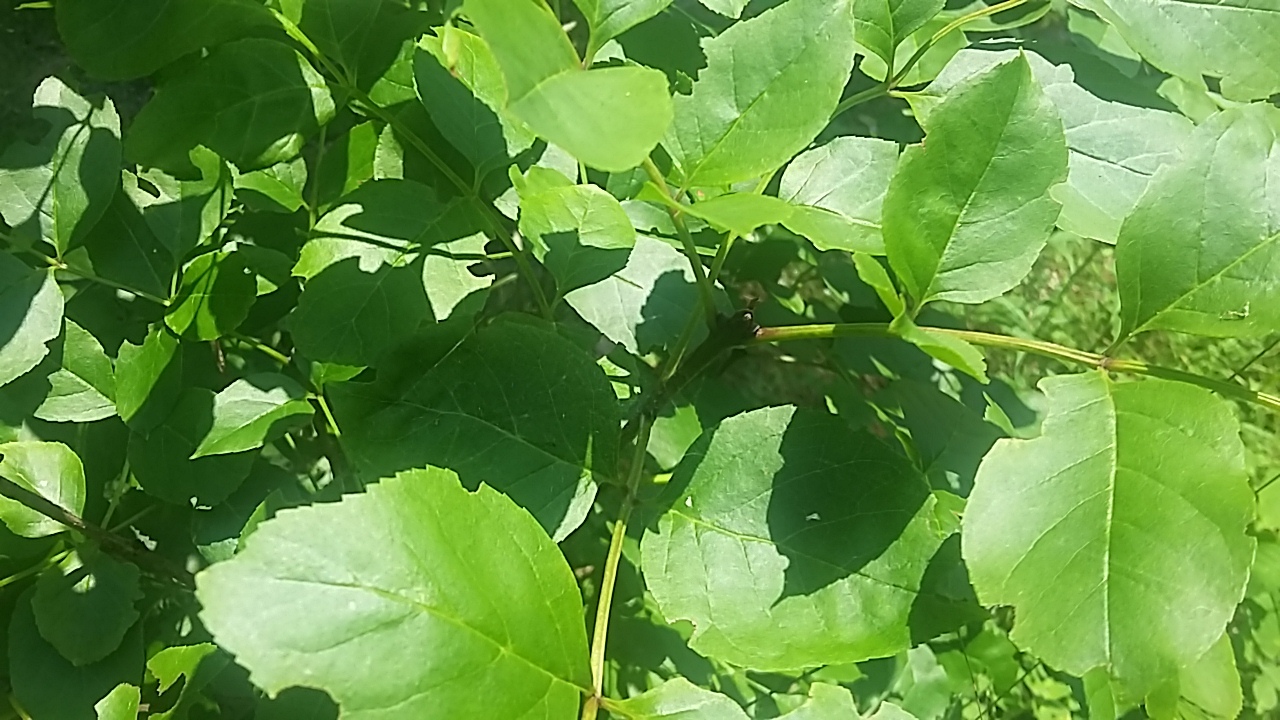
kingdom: Plantae
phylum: Tracheophyta
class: Magnoliopsida
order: Lamiales
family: Oleaceae
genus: Fraxinus
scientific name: Fraxinus ornus
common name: Manna ash
